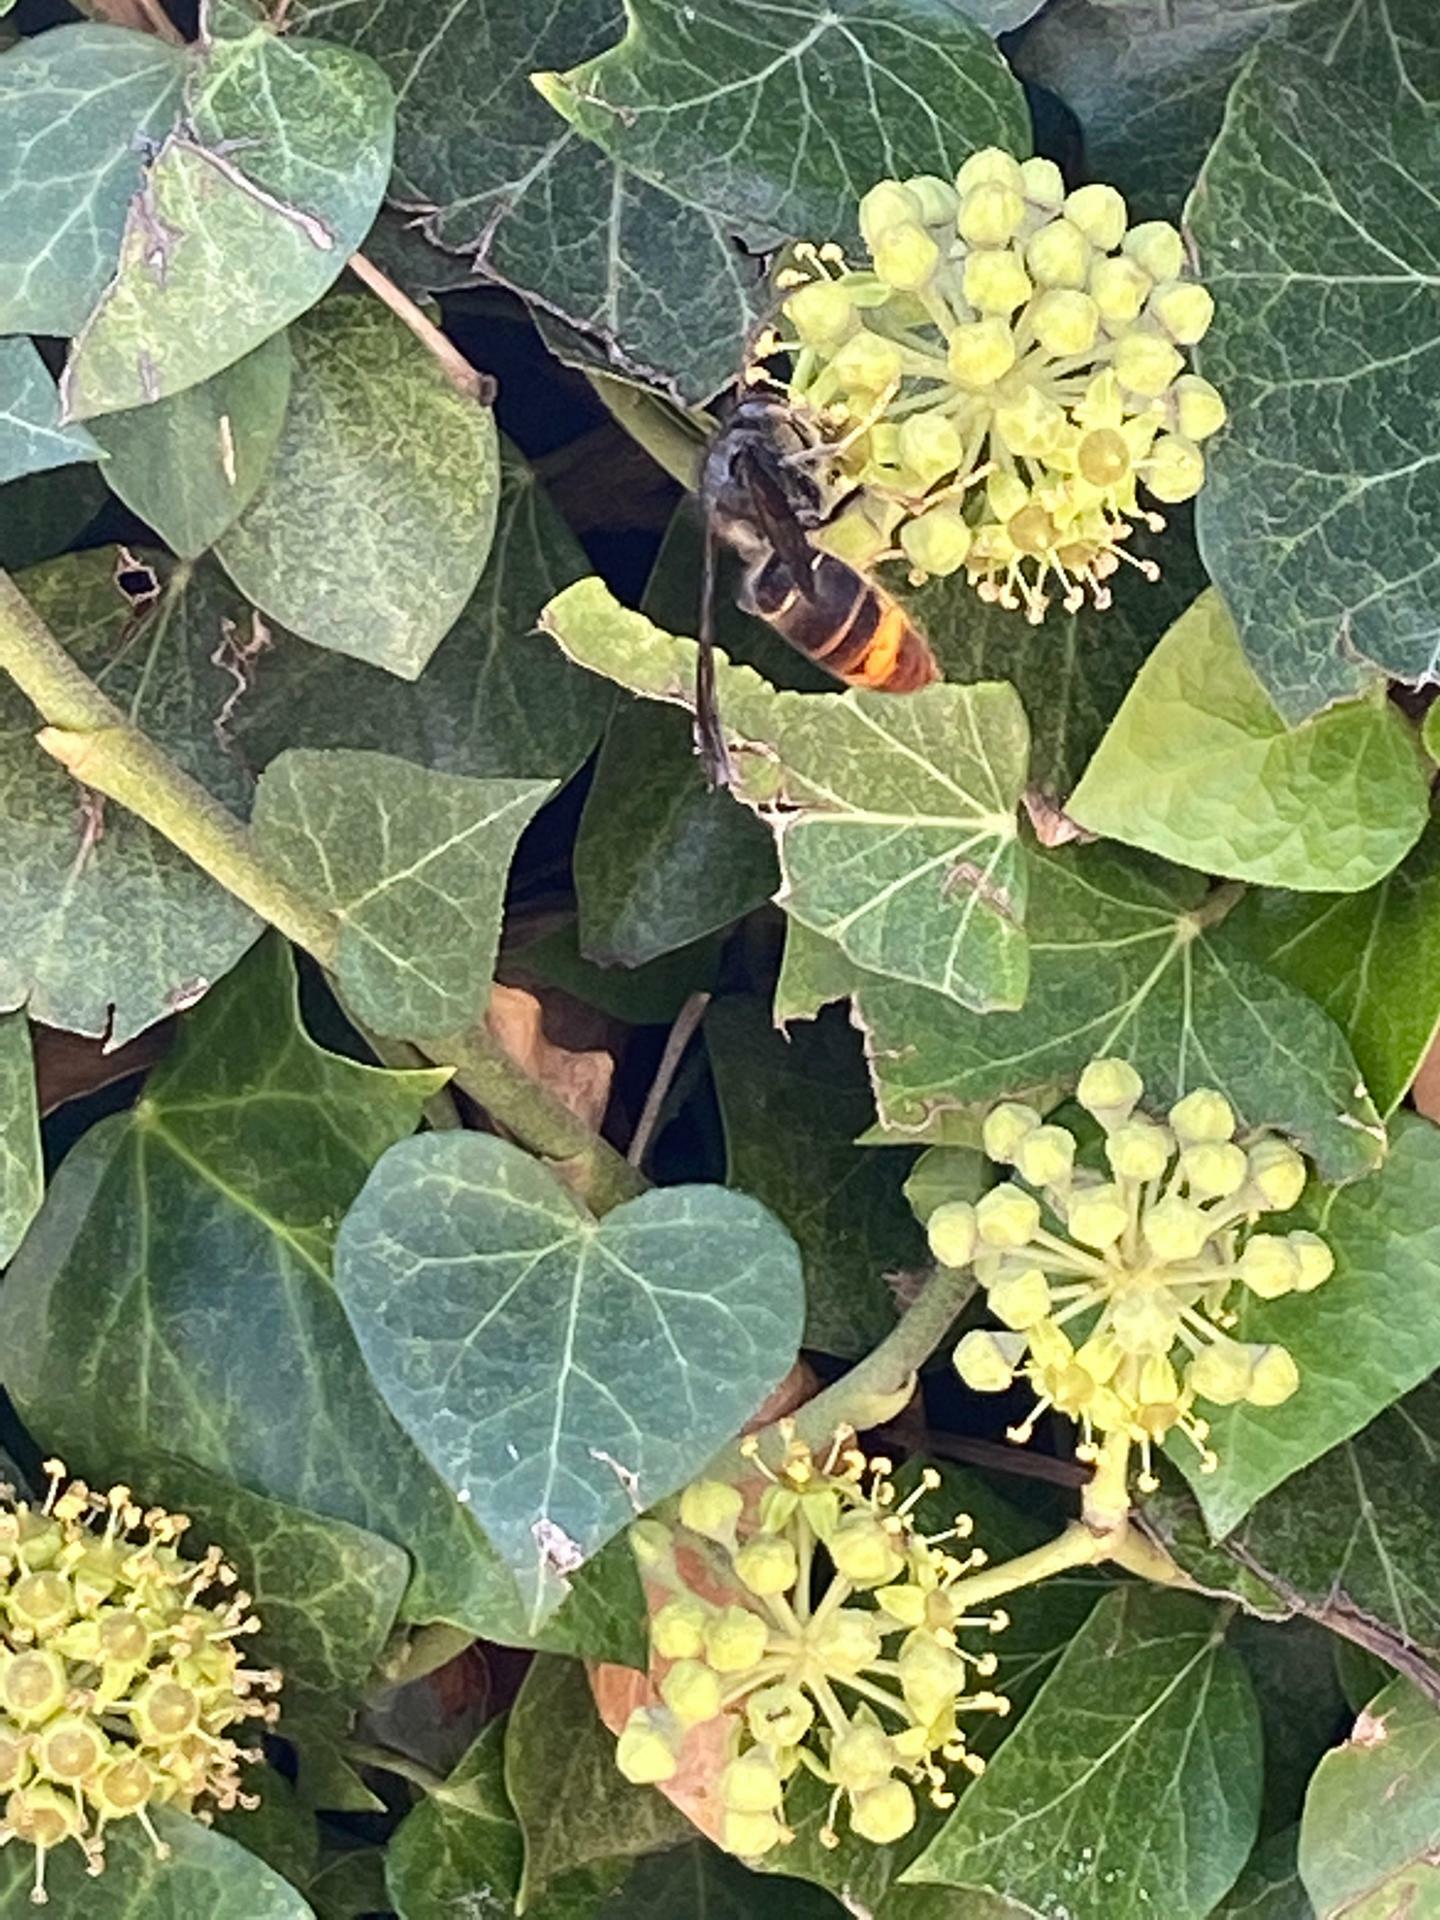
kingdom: Animalia
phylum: Arthropoda
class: Insecta
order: Hymenoptera
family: Vespidae
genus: Vespa
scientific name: Vespa velutina
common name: Asian hornet
